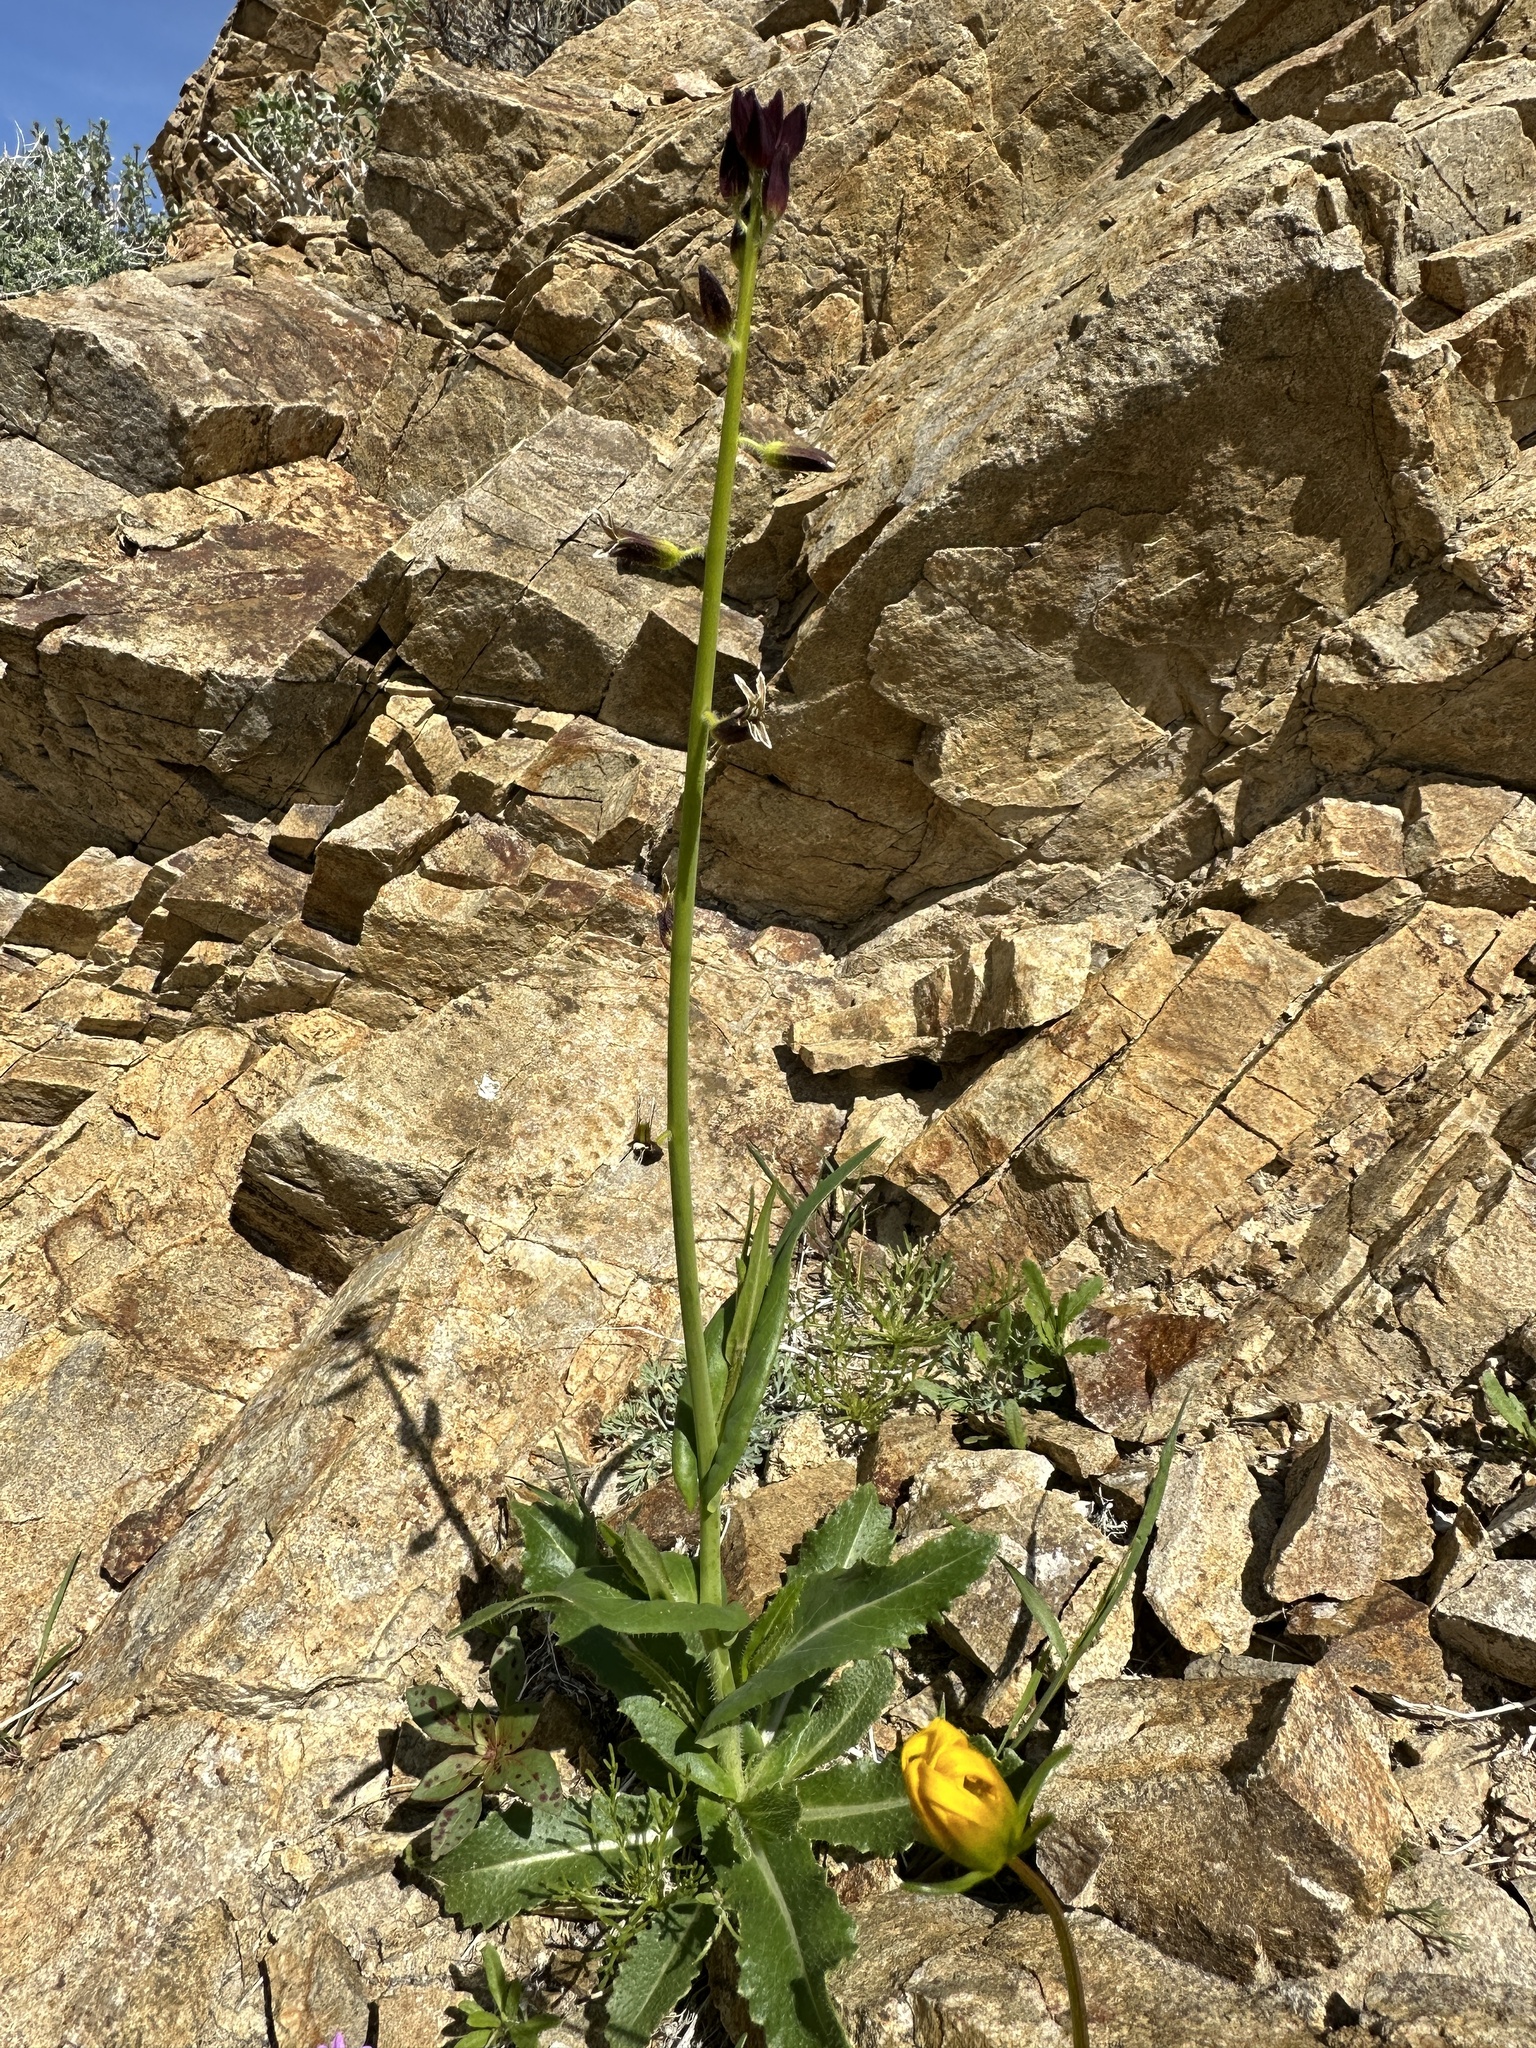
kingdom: Plantae
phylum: Tracheophyta
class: Magnoliopsida
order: Brassicales
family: Brassicaceae
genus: Streptanthus
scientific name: Streptanthus coulteri
